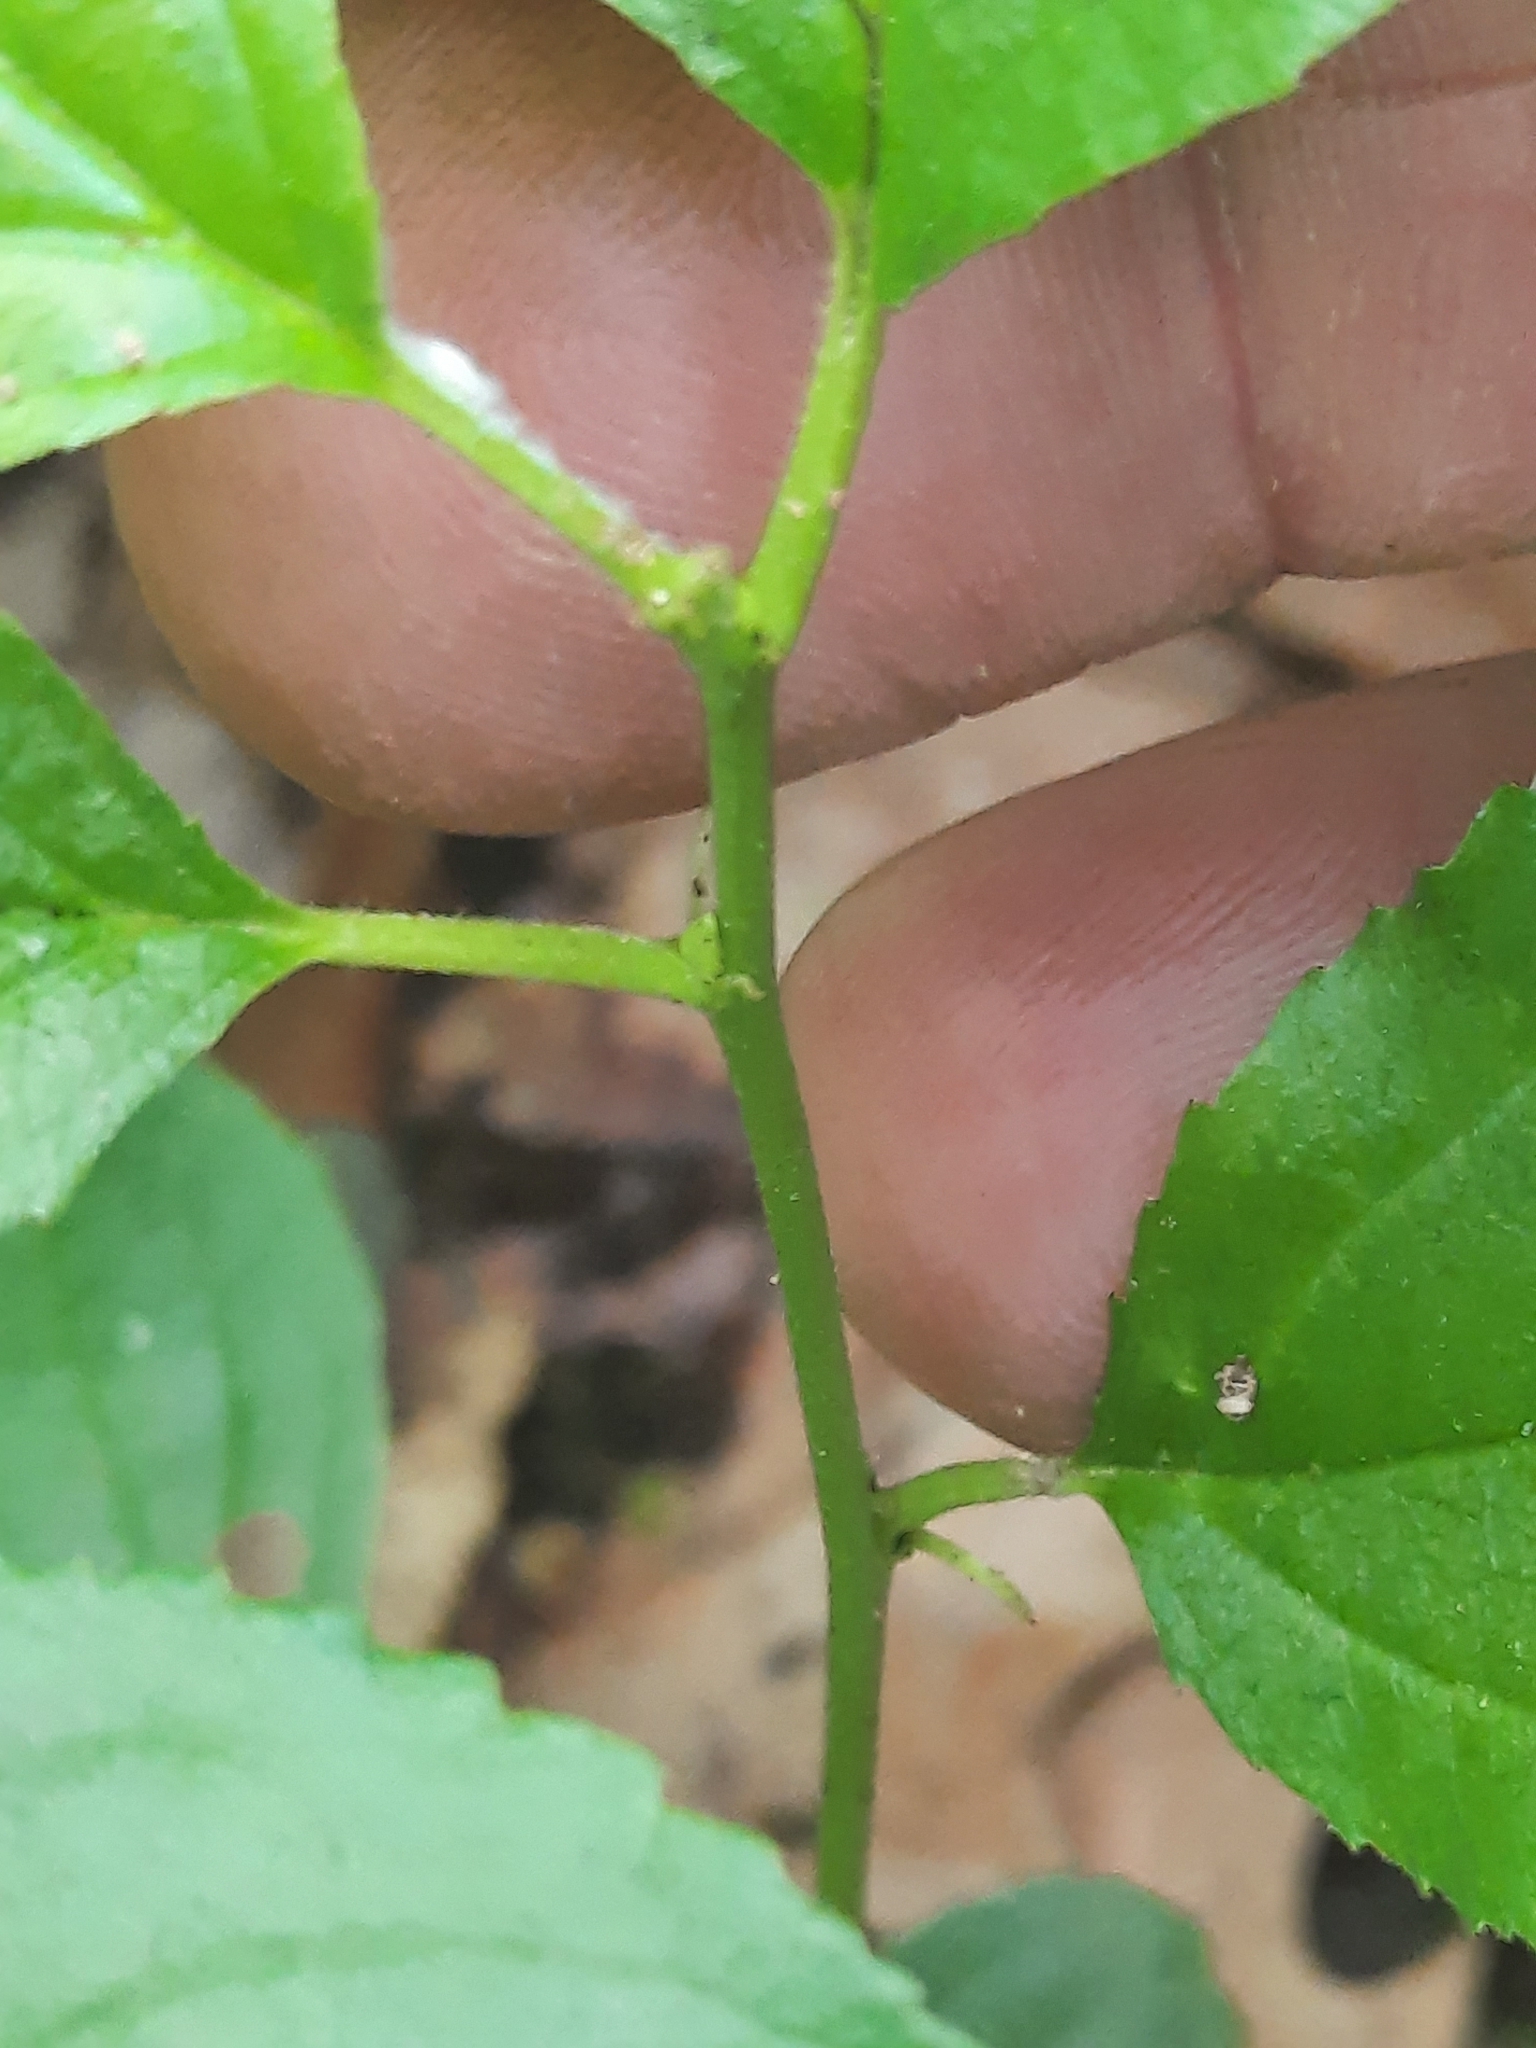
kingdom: Plantae
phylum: Tracheophyta
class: Magnoliopsida
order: Rosales
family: Rhamnaceae
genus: Rhamnus
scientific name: Rhamnus cathartica
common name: Common buckthorn
